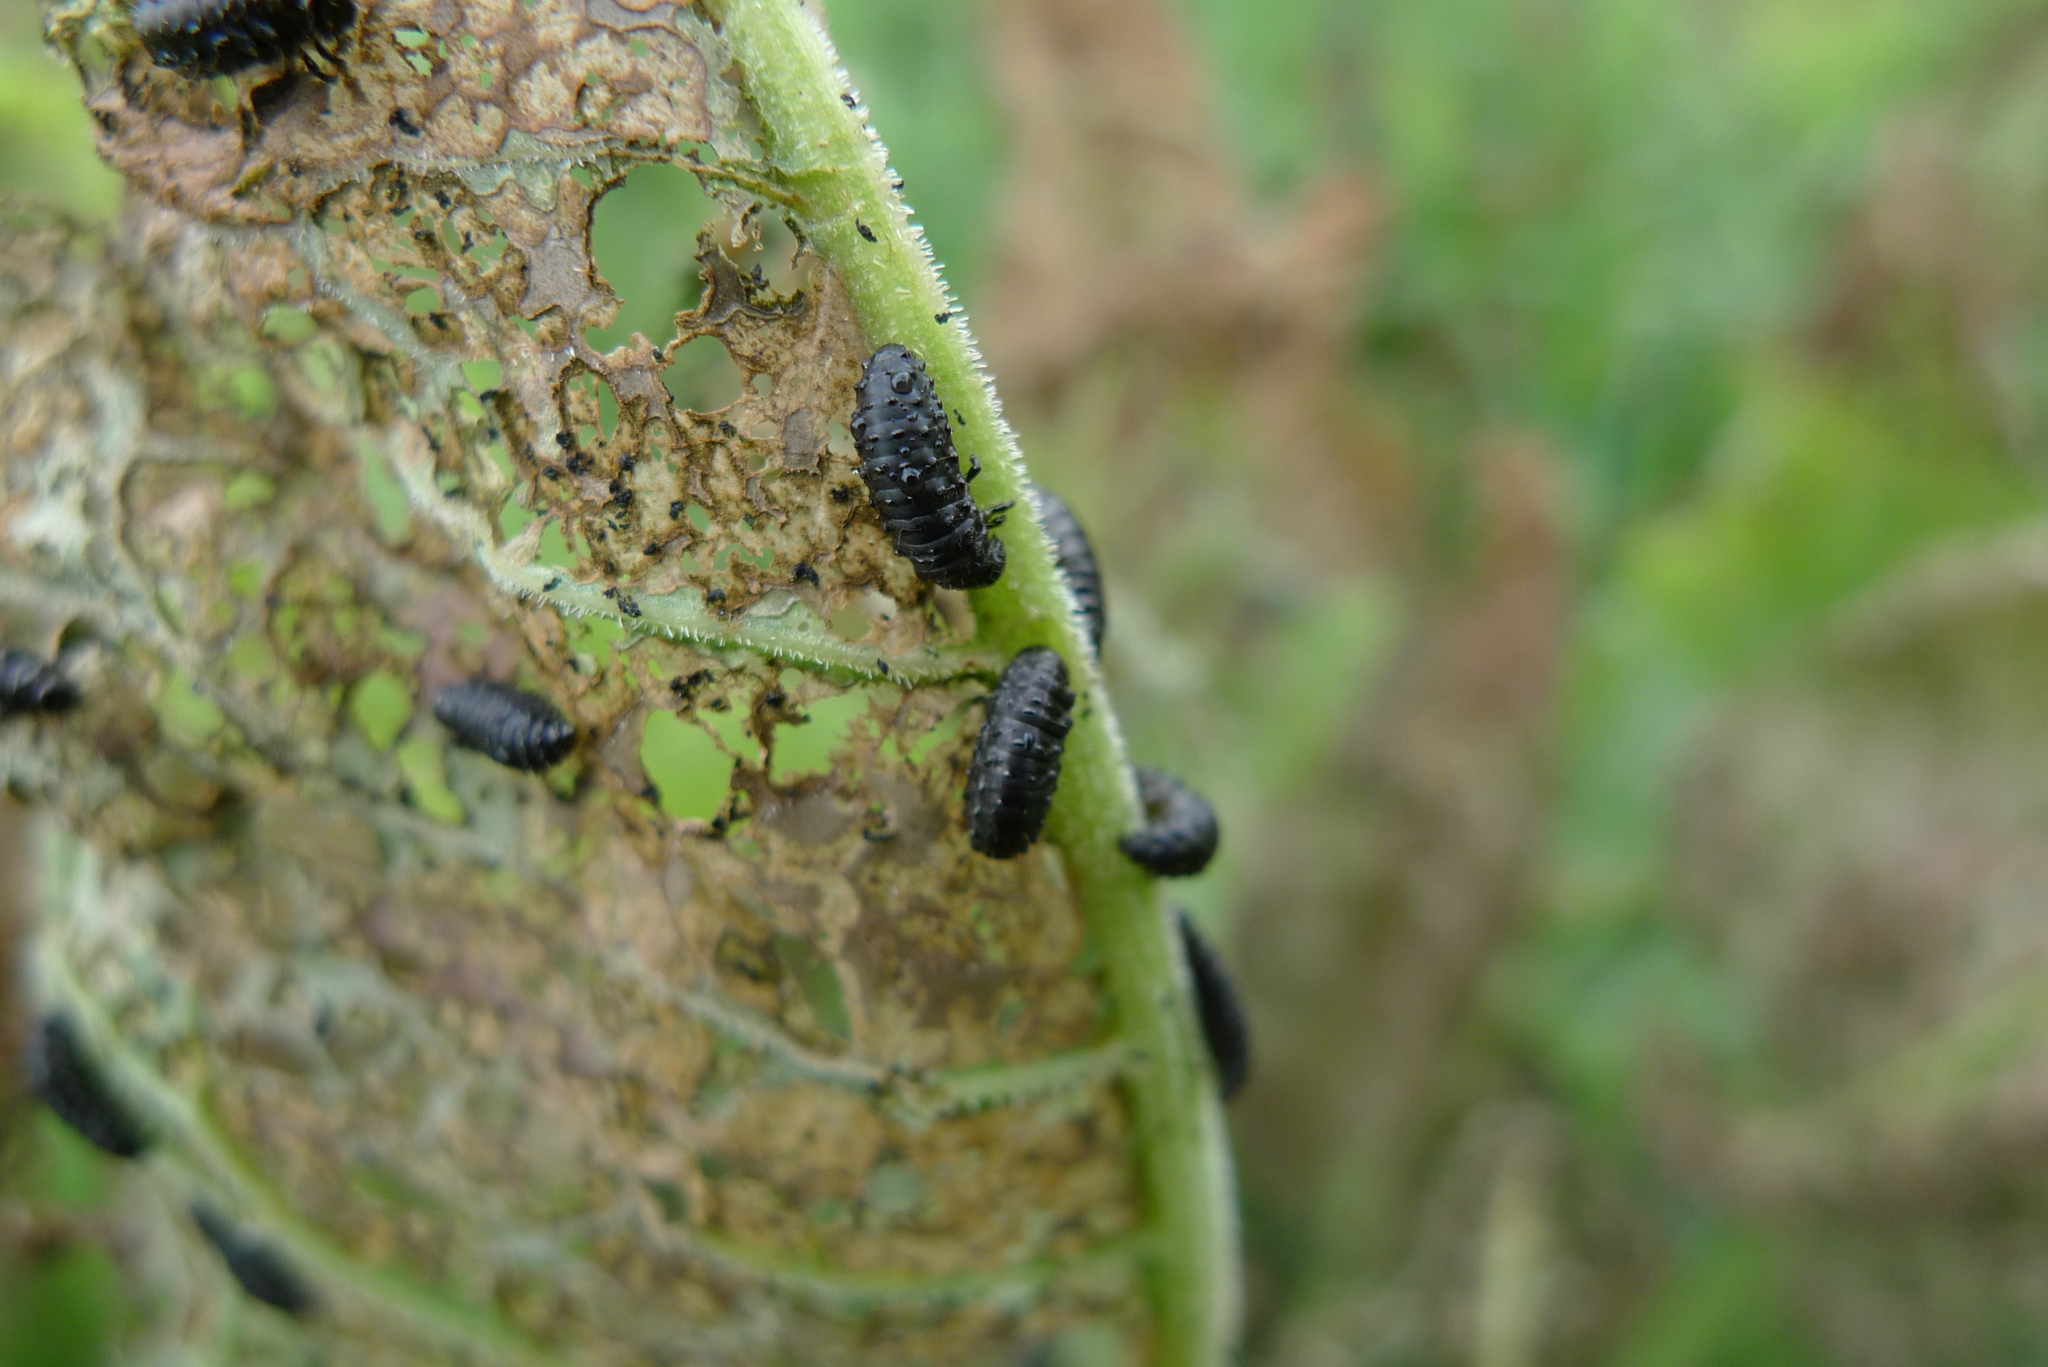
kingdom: Animalia
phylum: Arthropoda
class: Insecta
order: Coleoptera
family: Chrysomelidae
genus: Gastrophysa
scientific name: Gastrophysa viridula
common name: Green dock beetle
